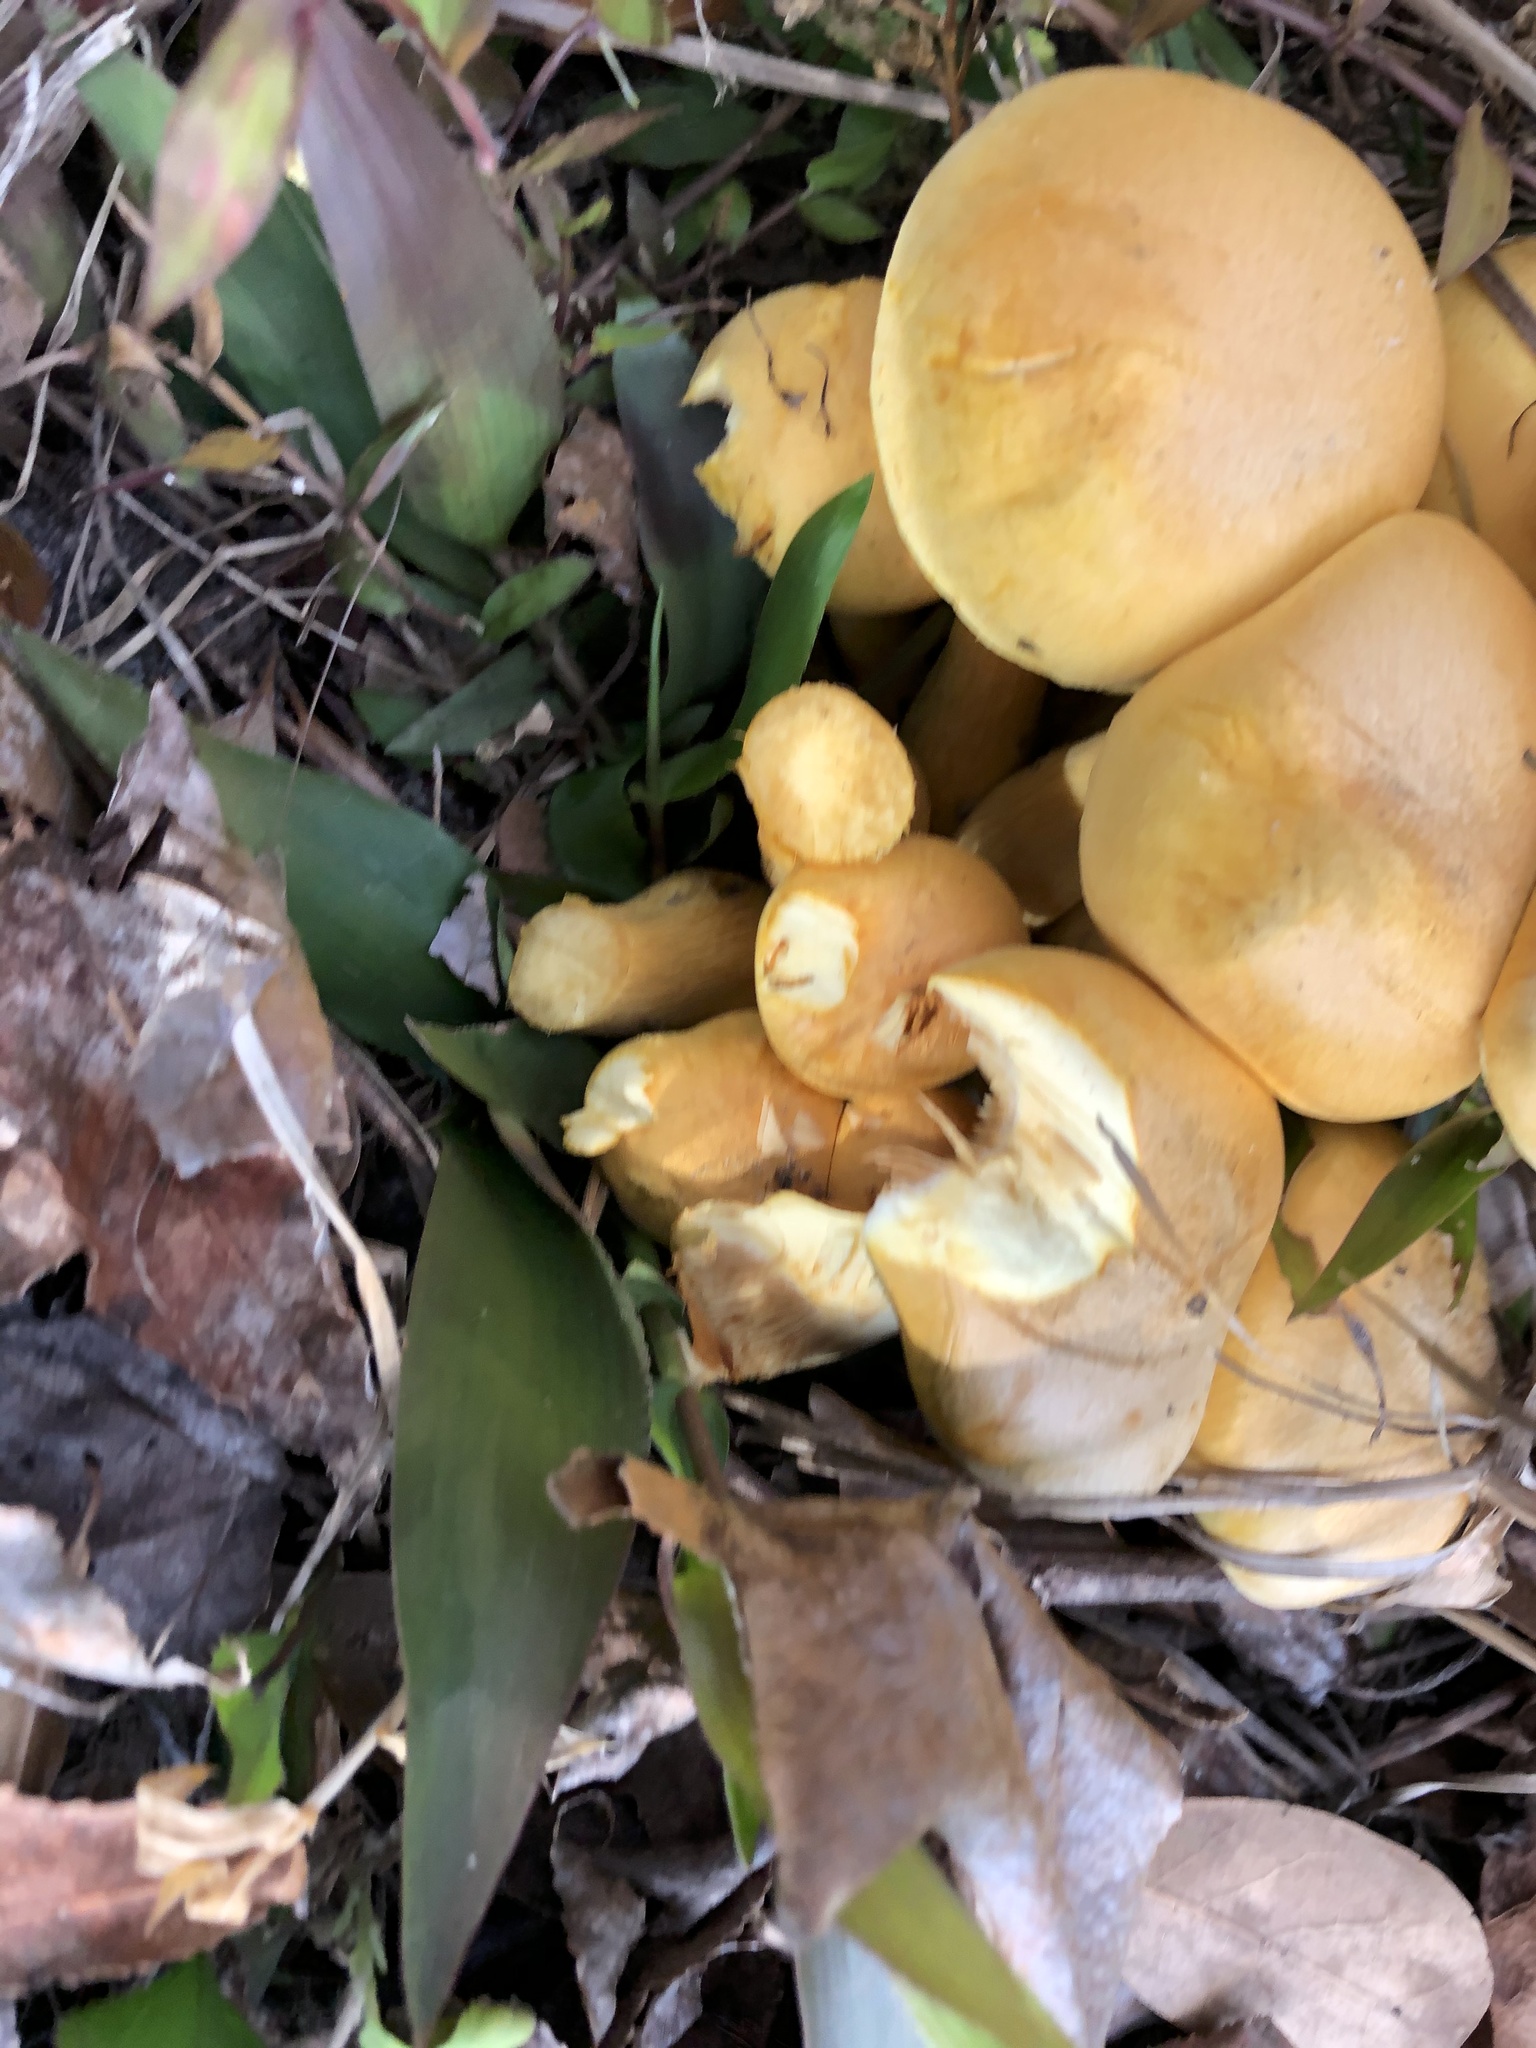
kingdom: Fungi
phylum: Basidiomycota
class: Agaricomycetes
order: Agaricales
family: Hymenogastraceae
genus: Gymnopilus
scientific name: Gymnopilus subspectabilis
